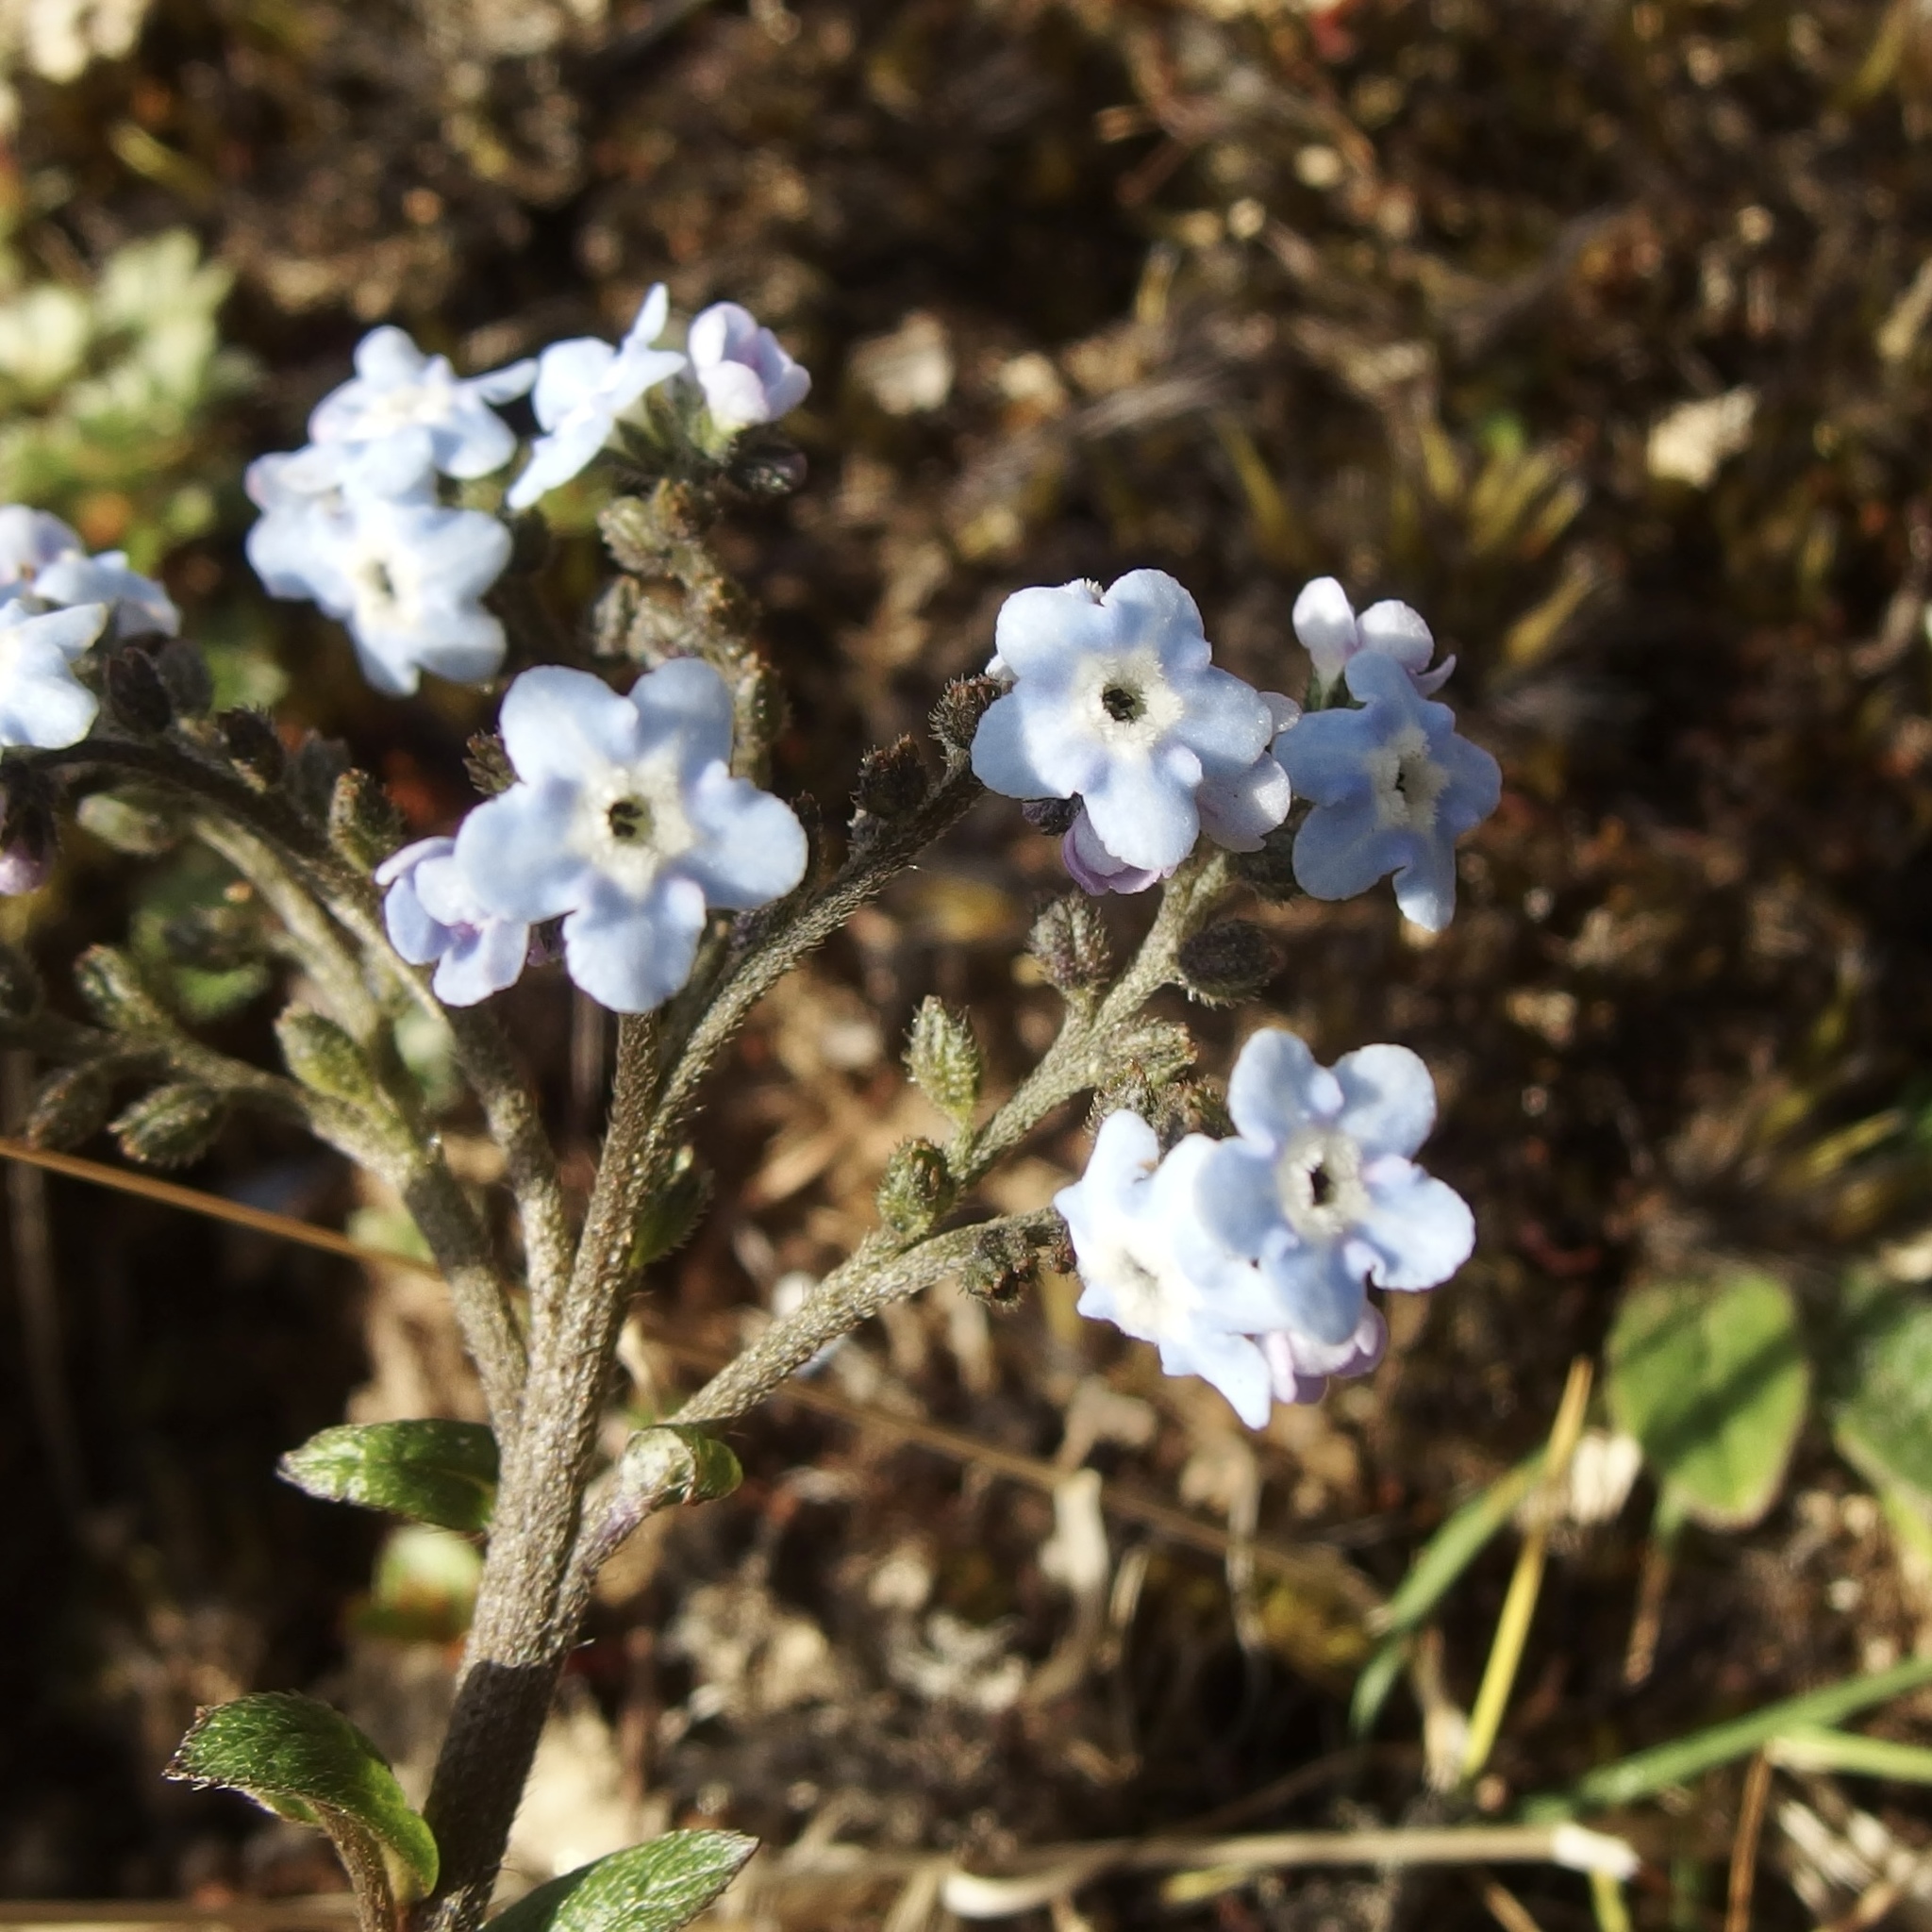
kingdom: Plantae
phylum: Tracheophyta
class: Magnoliopsida
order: Boraginales
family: Boraginaceae
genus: Moritzia
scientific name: Moritzia lindenii
